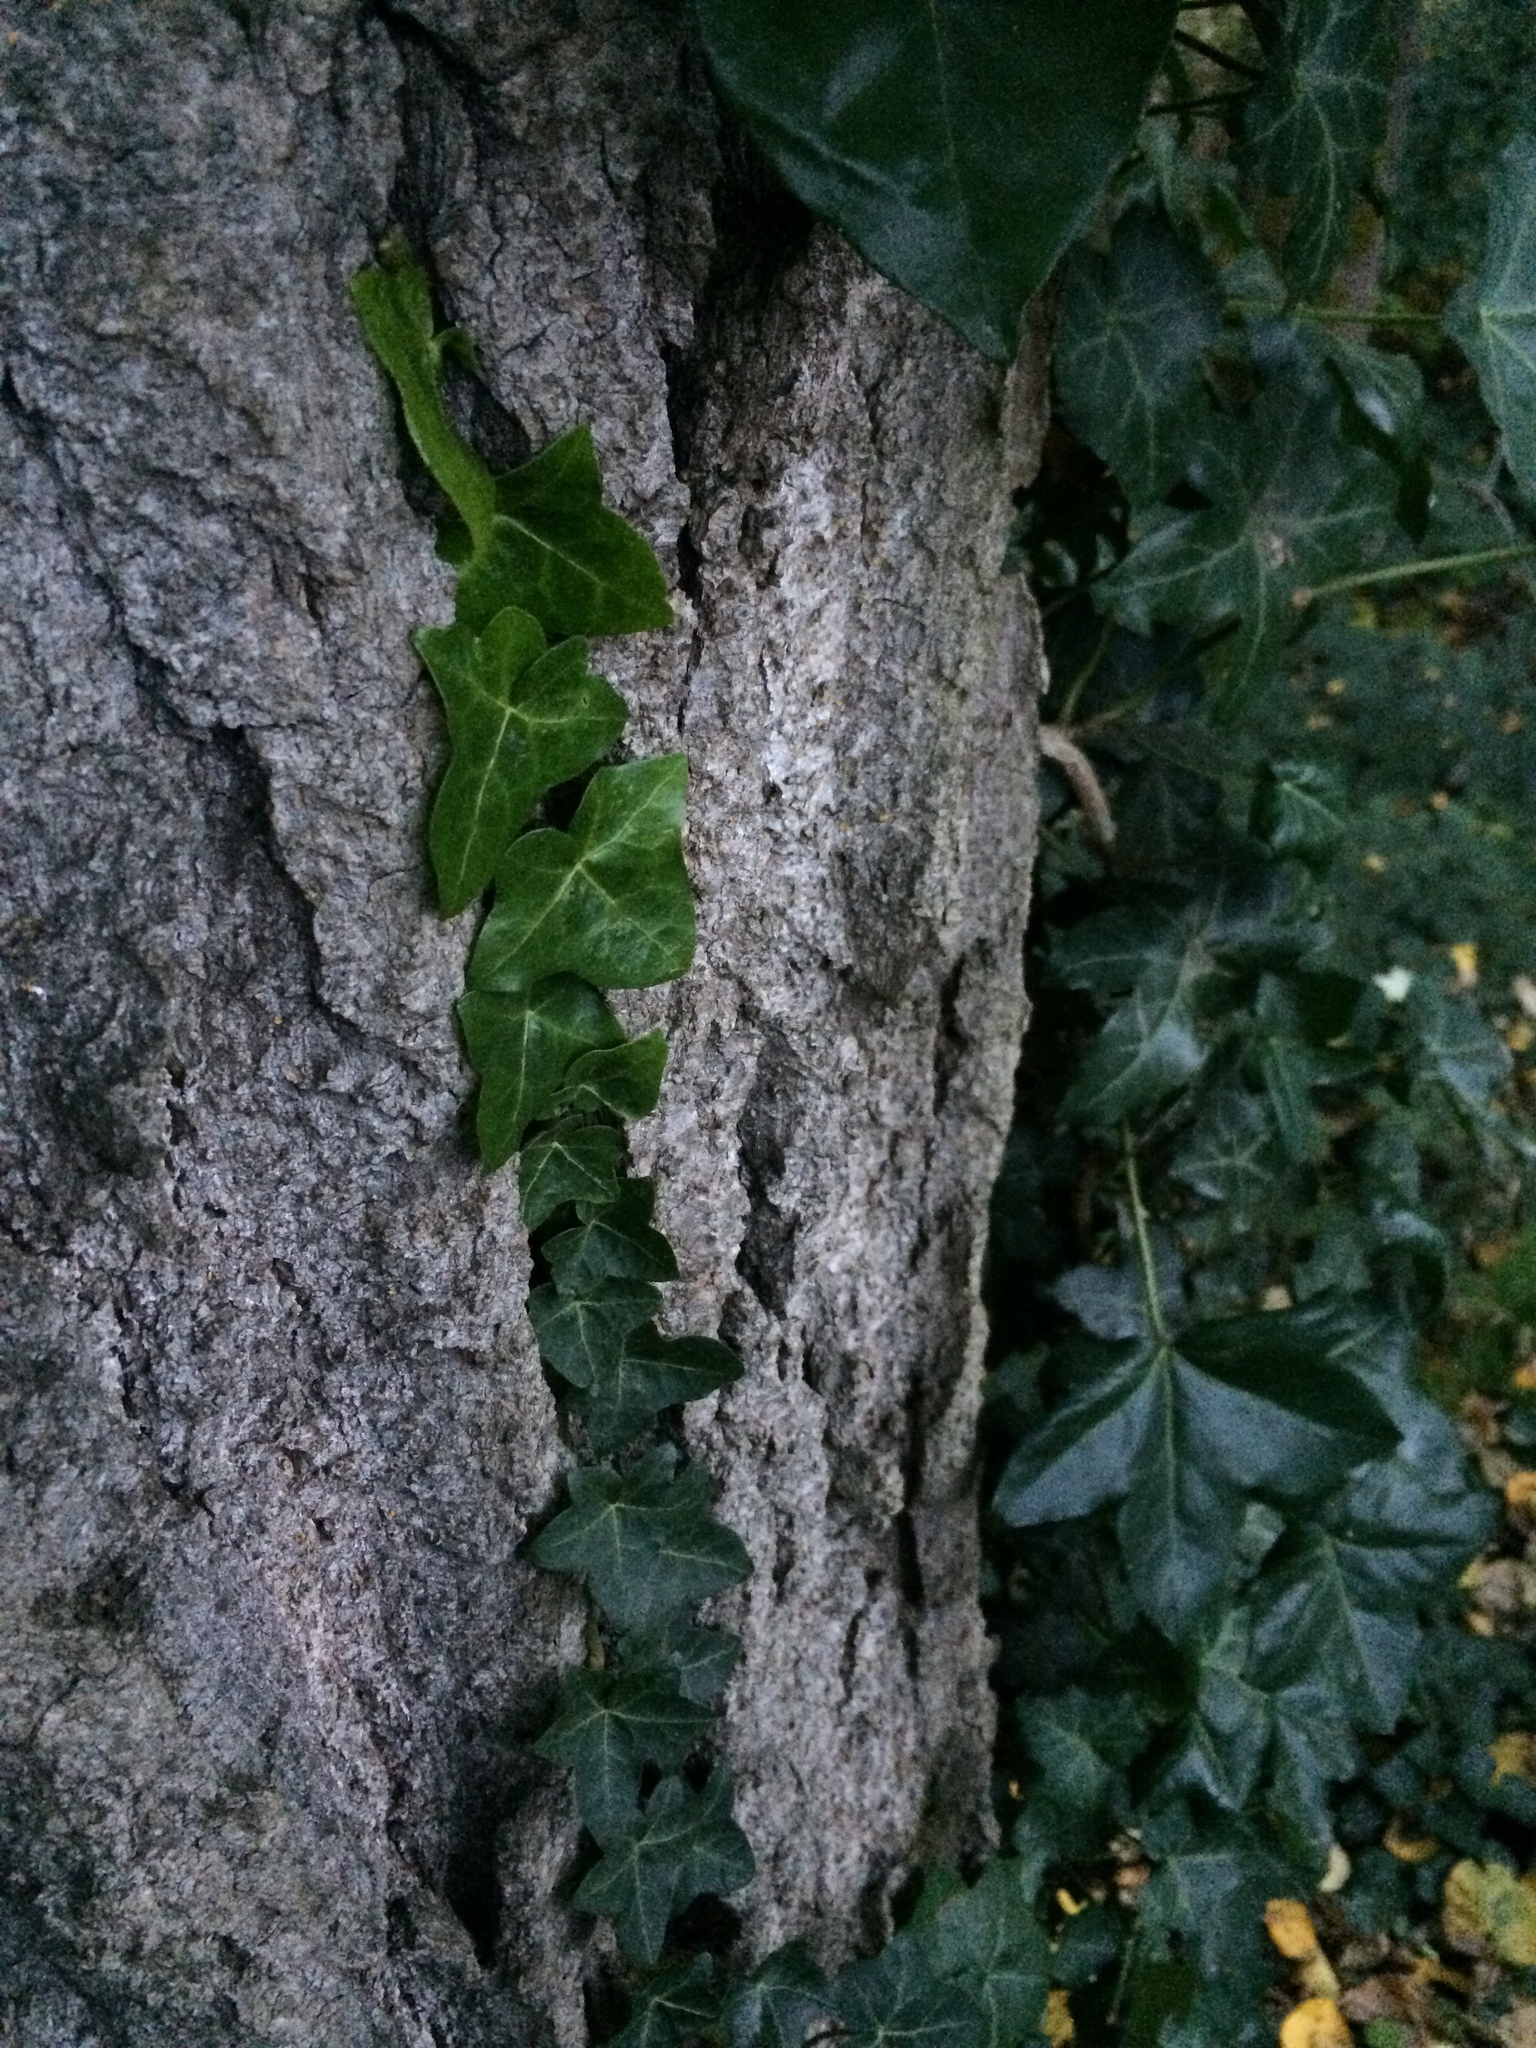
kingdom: Plantae
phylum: Tracheophyta
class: Magnoliopsida
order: Apiales
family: Araliaceae
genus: Hedera
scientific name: Hedera helix
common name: Ivy
